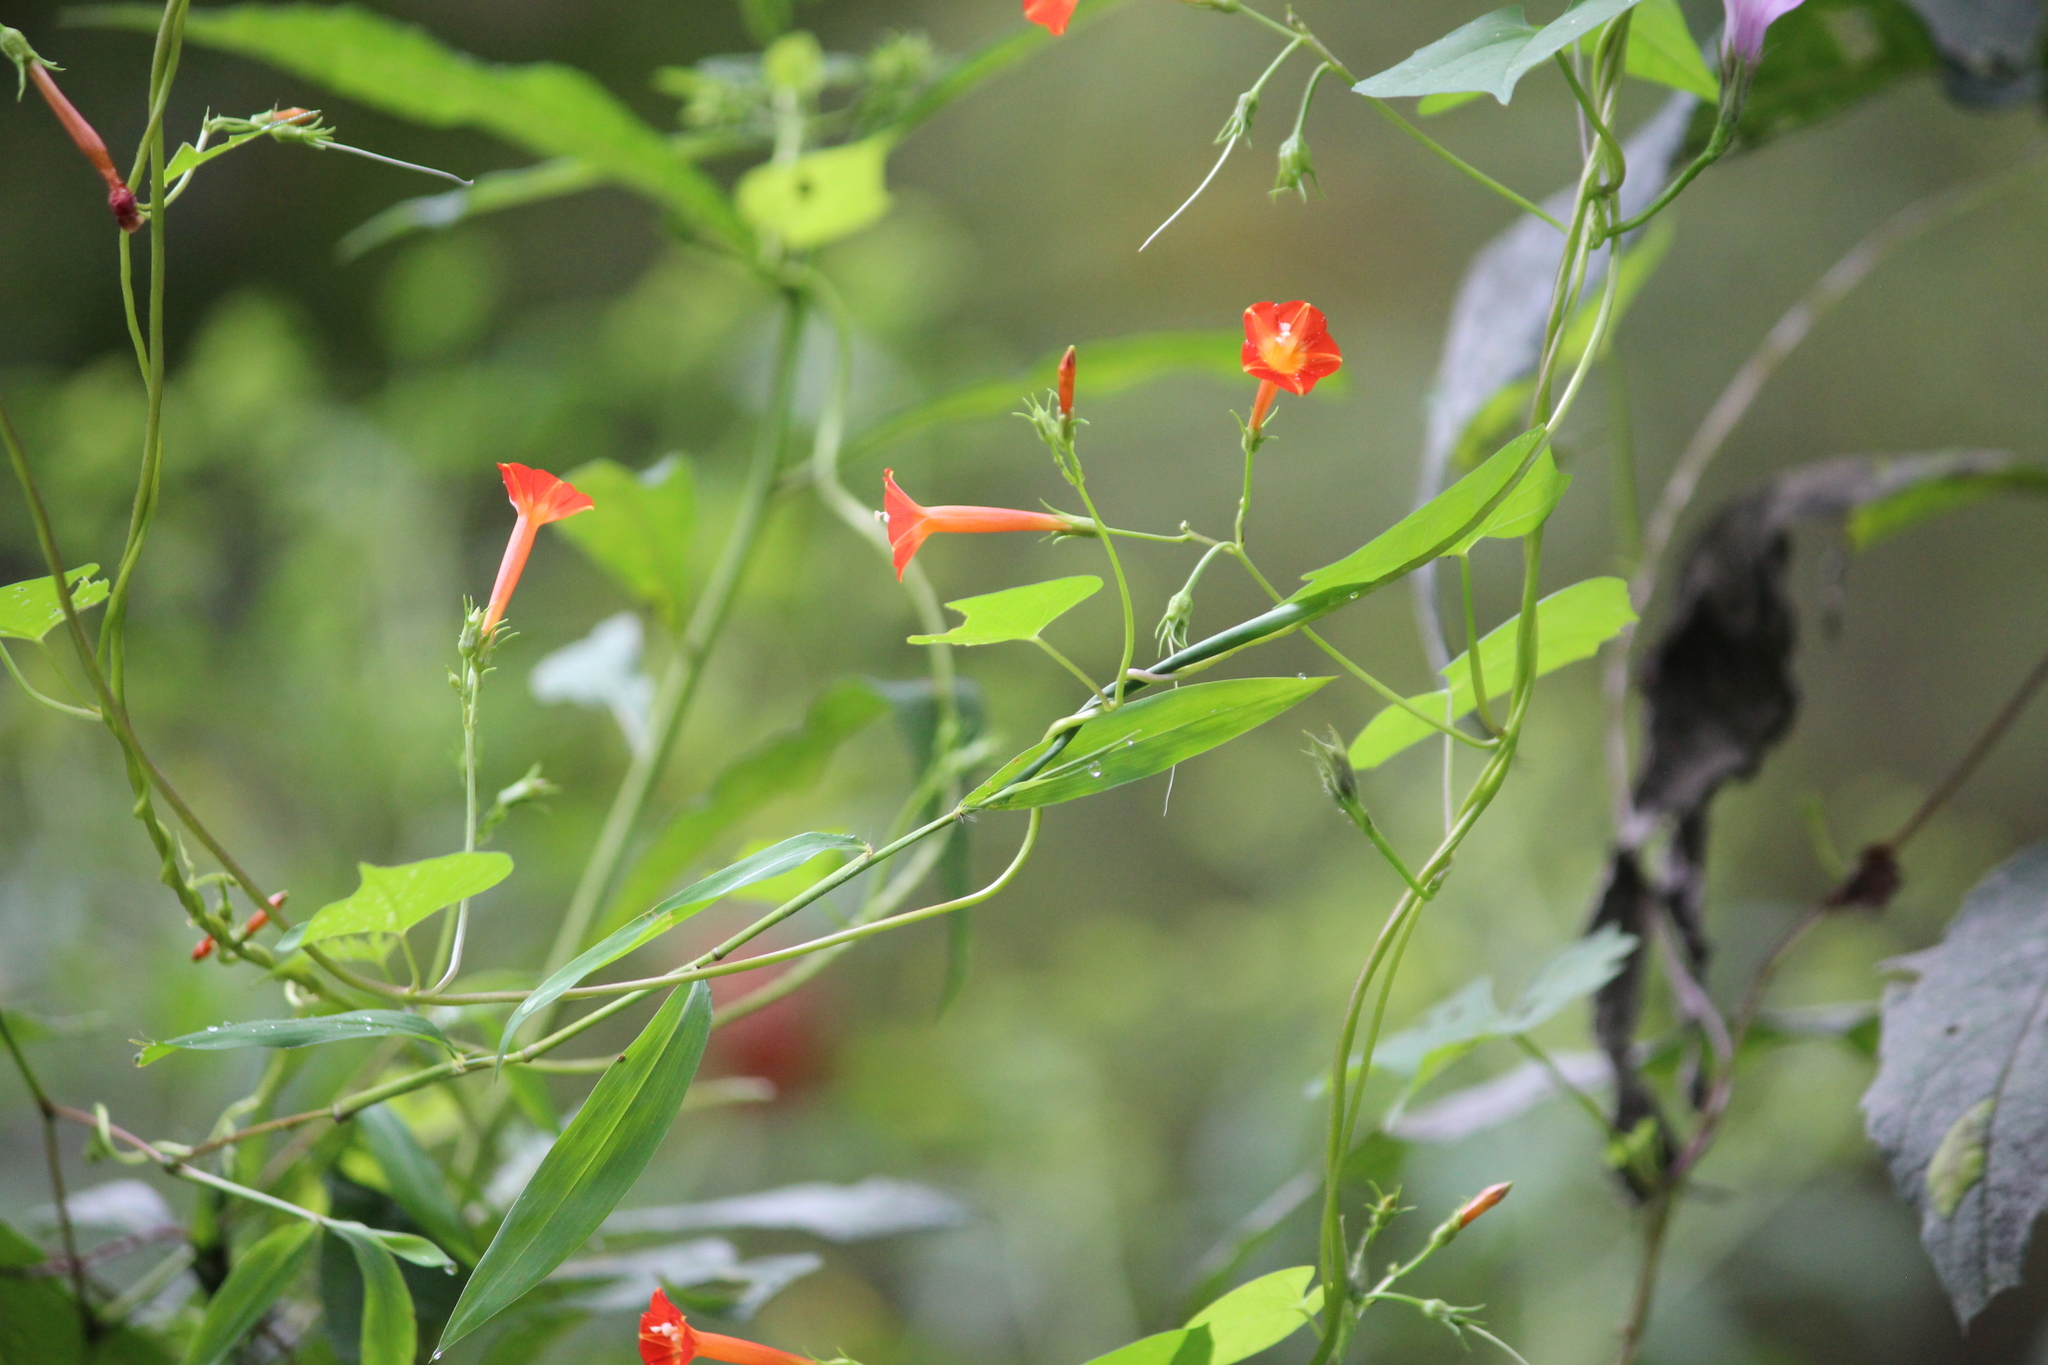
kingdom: Plantae
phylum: Tracheophyta
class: Magnoliopsida
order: Solanales
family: Convolvulaceae
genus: Ipomoea
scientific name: Ipomoea coccinea
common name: Red morning-glory
